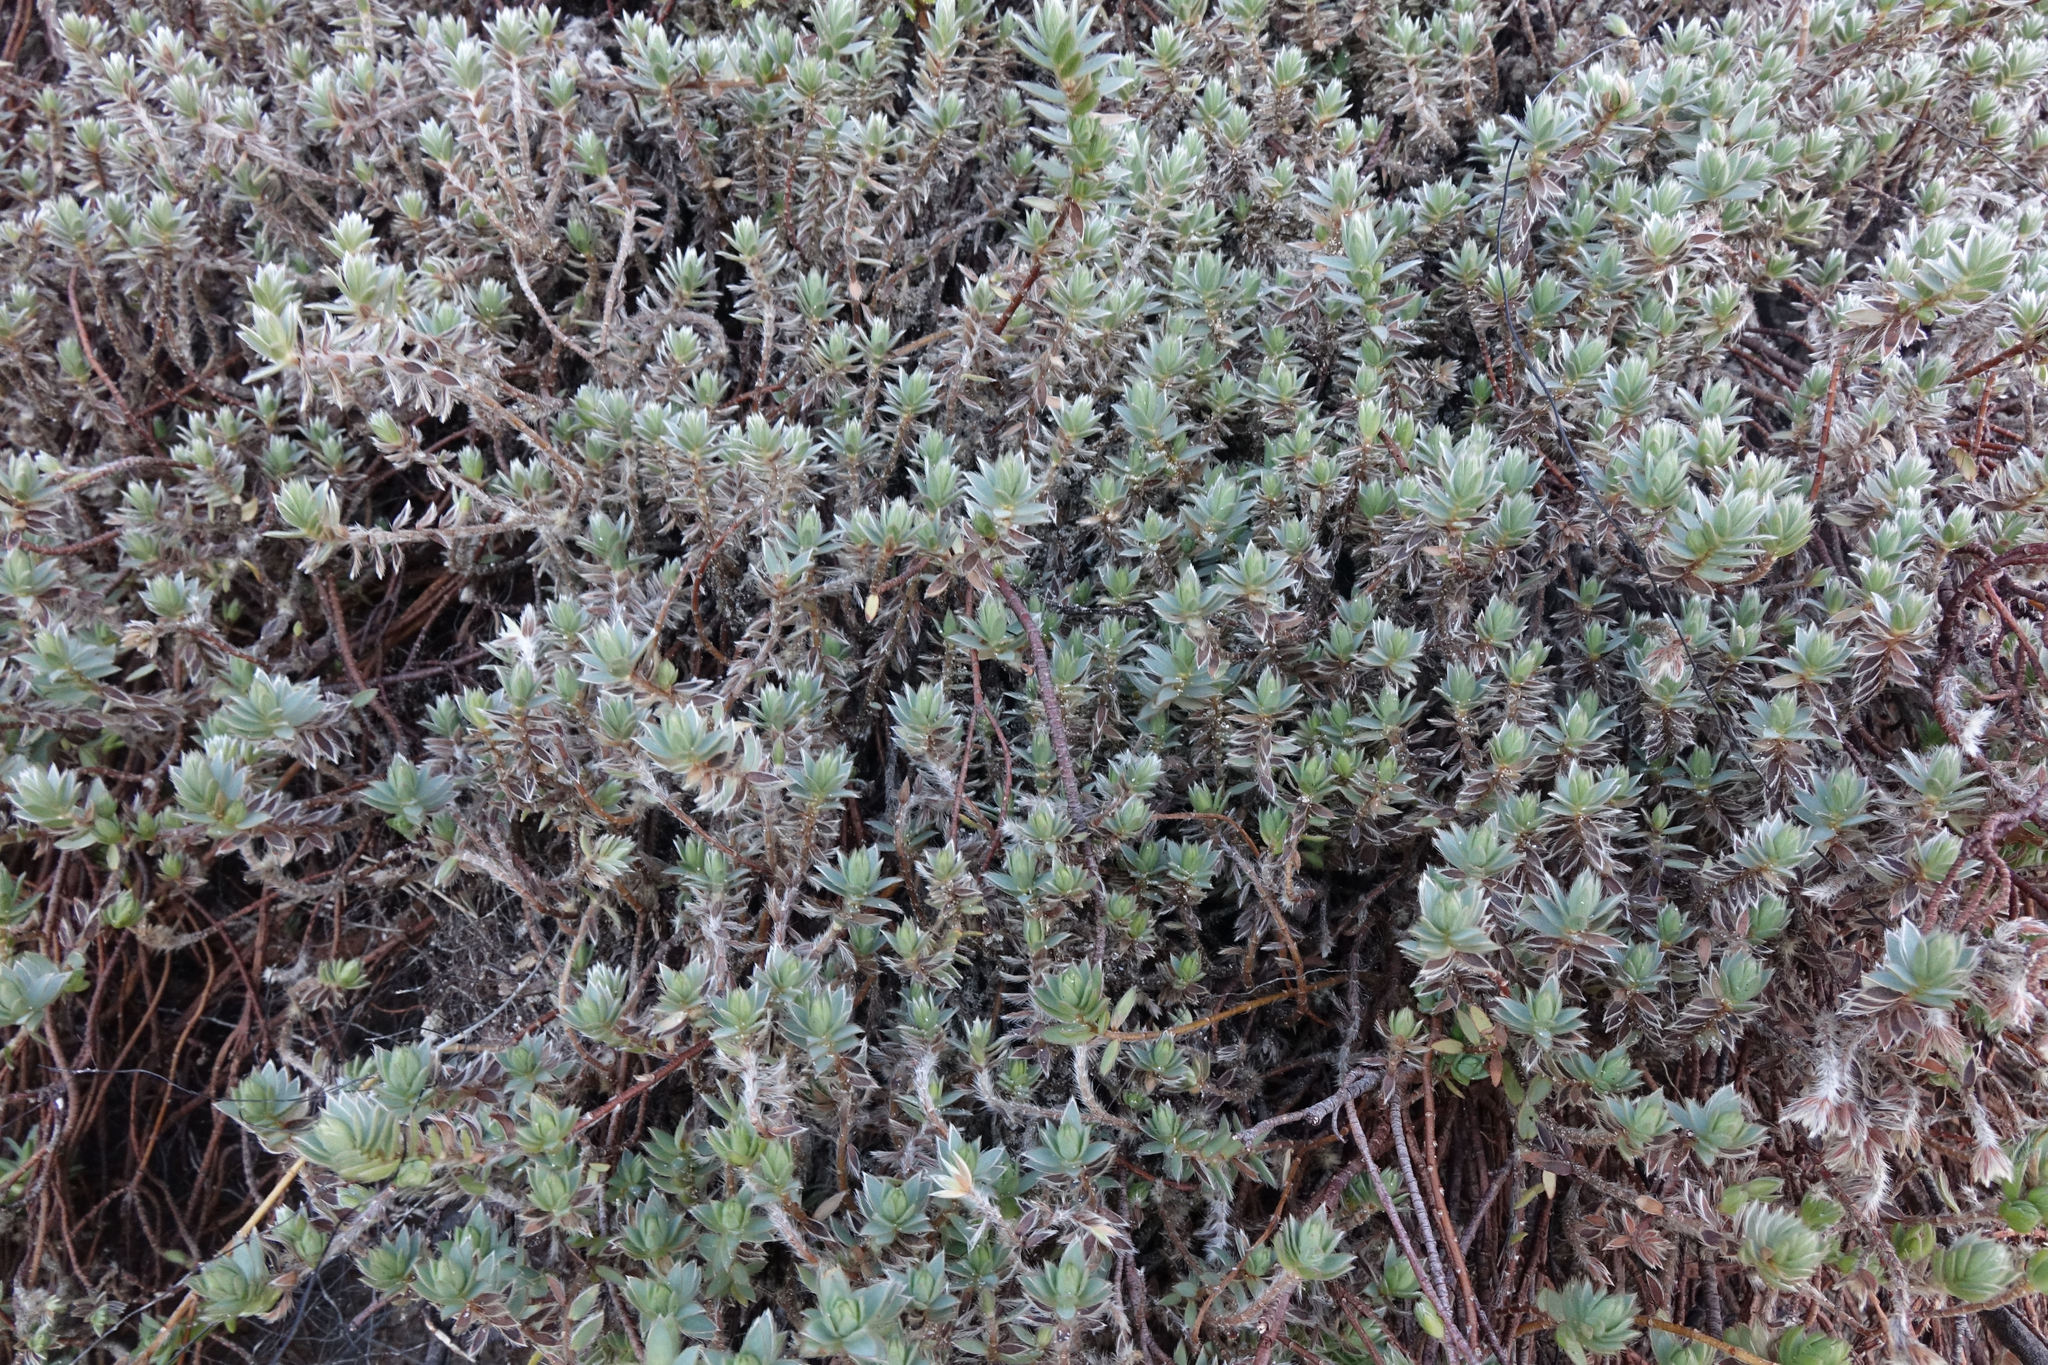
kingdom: Plantae
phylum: Tracheophyta
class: Magnoliopsida
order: Malvales
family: Thymelaeaceae
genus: Pimelea
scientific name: Pimelea lyallii
